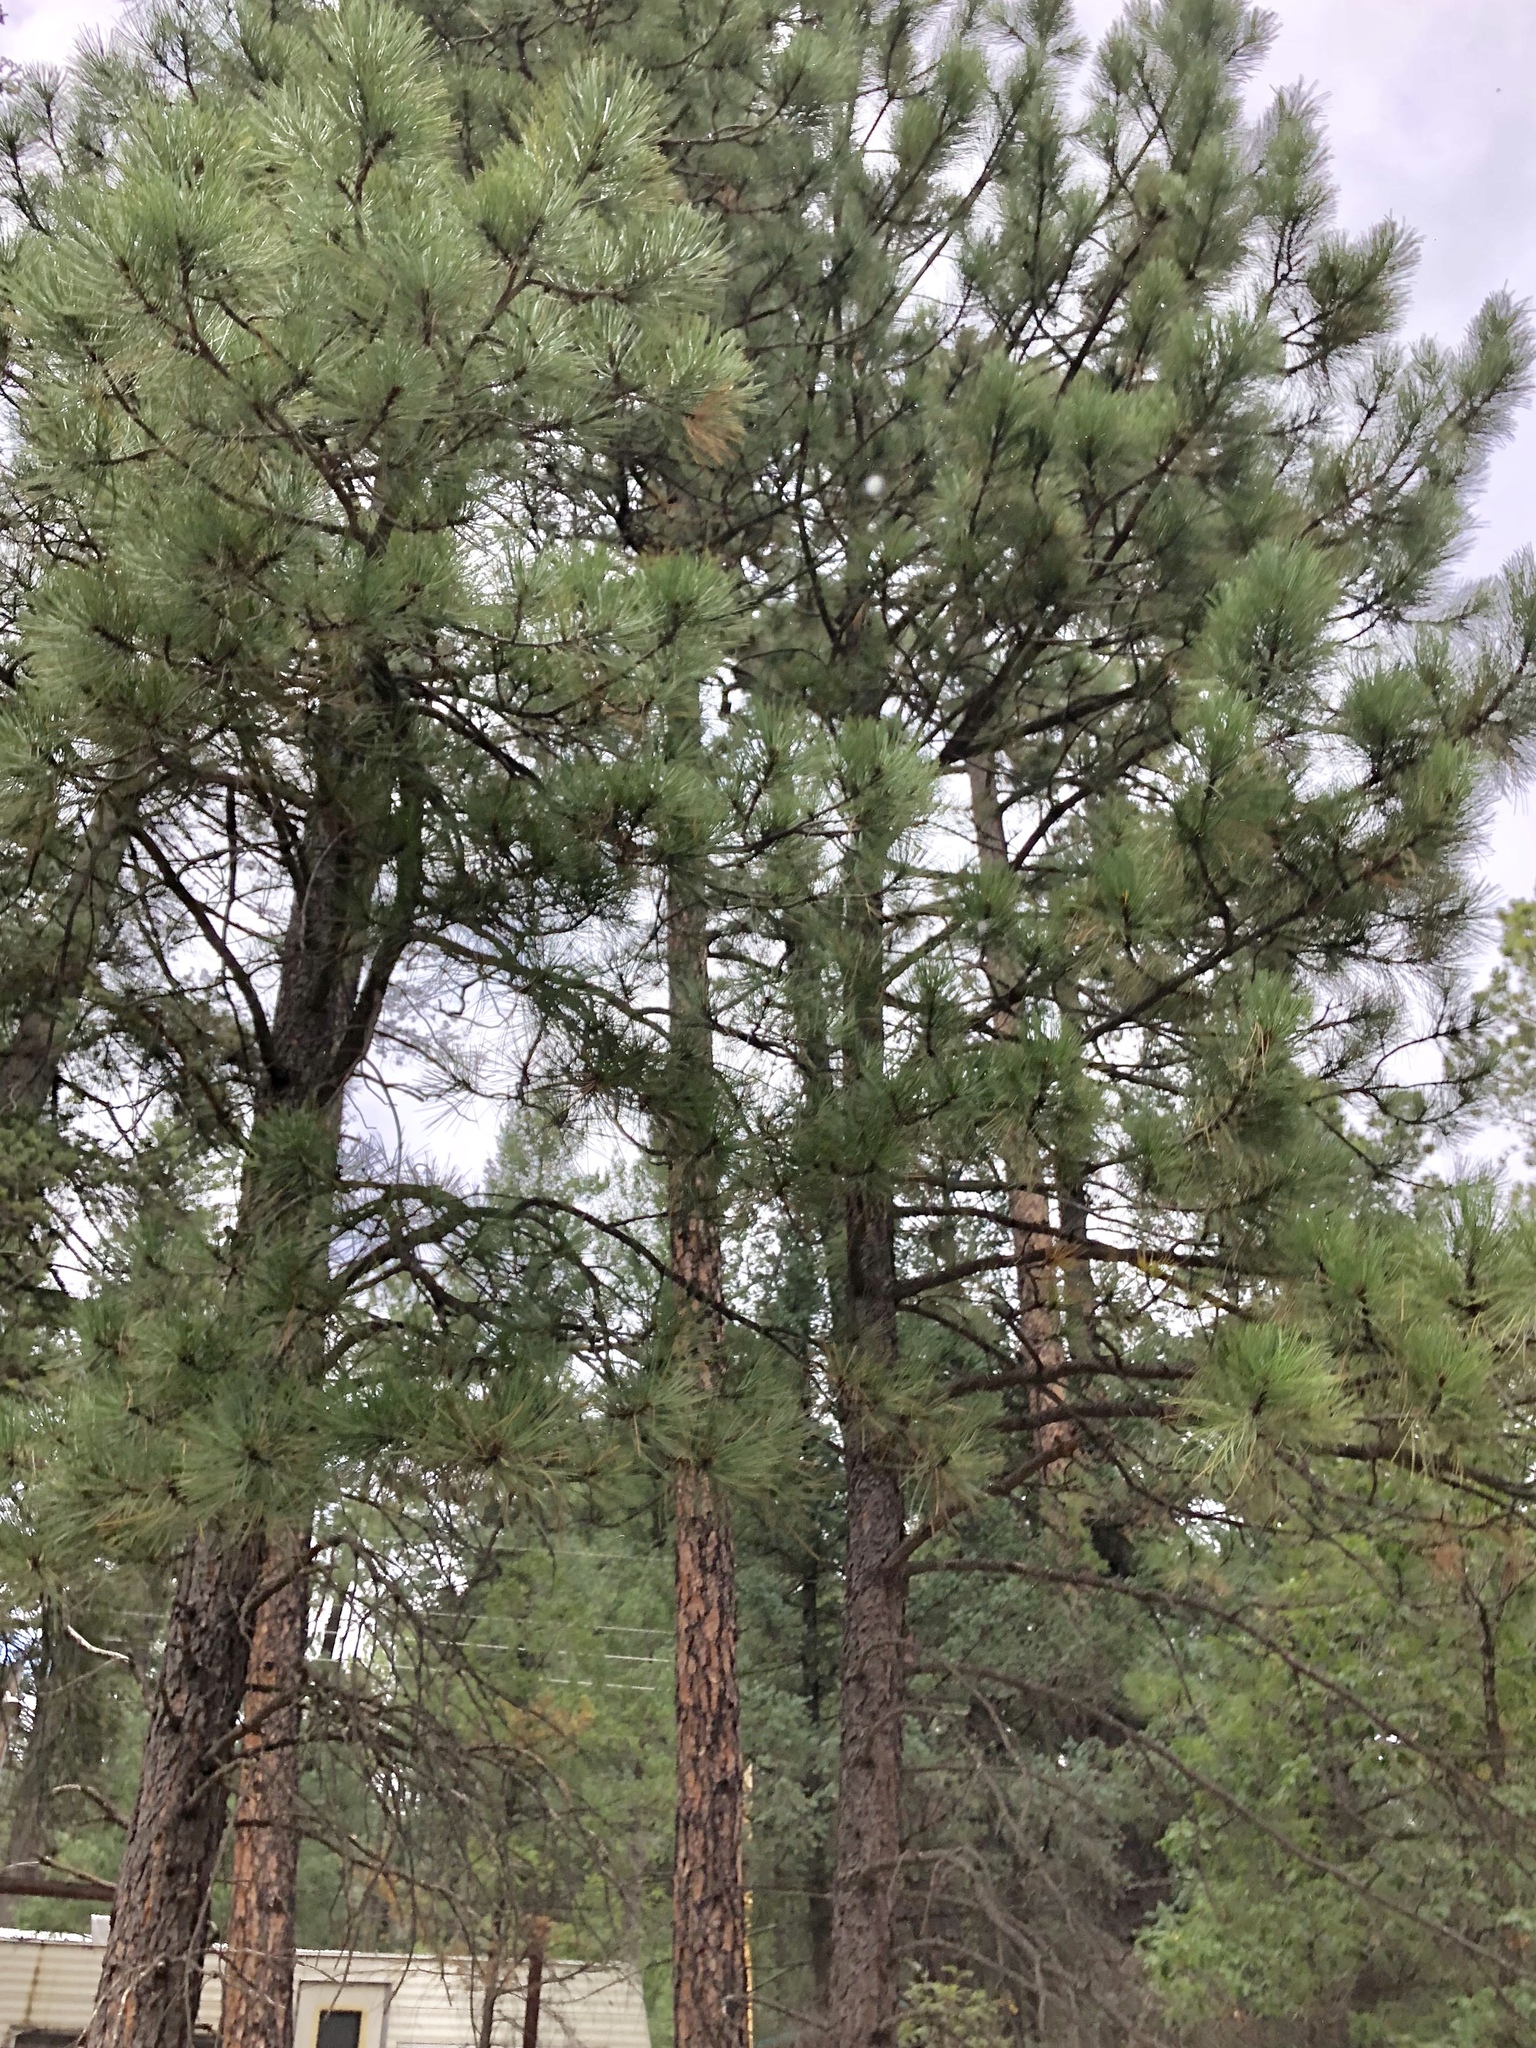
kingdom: Plantae
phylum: Tracheophyta
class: Pinopsida
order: Pinales
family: Pinaceae
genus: Pinus
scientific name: Pinus ponderosa
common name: Western yellow-pine
